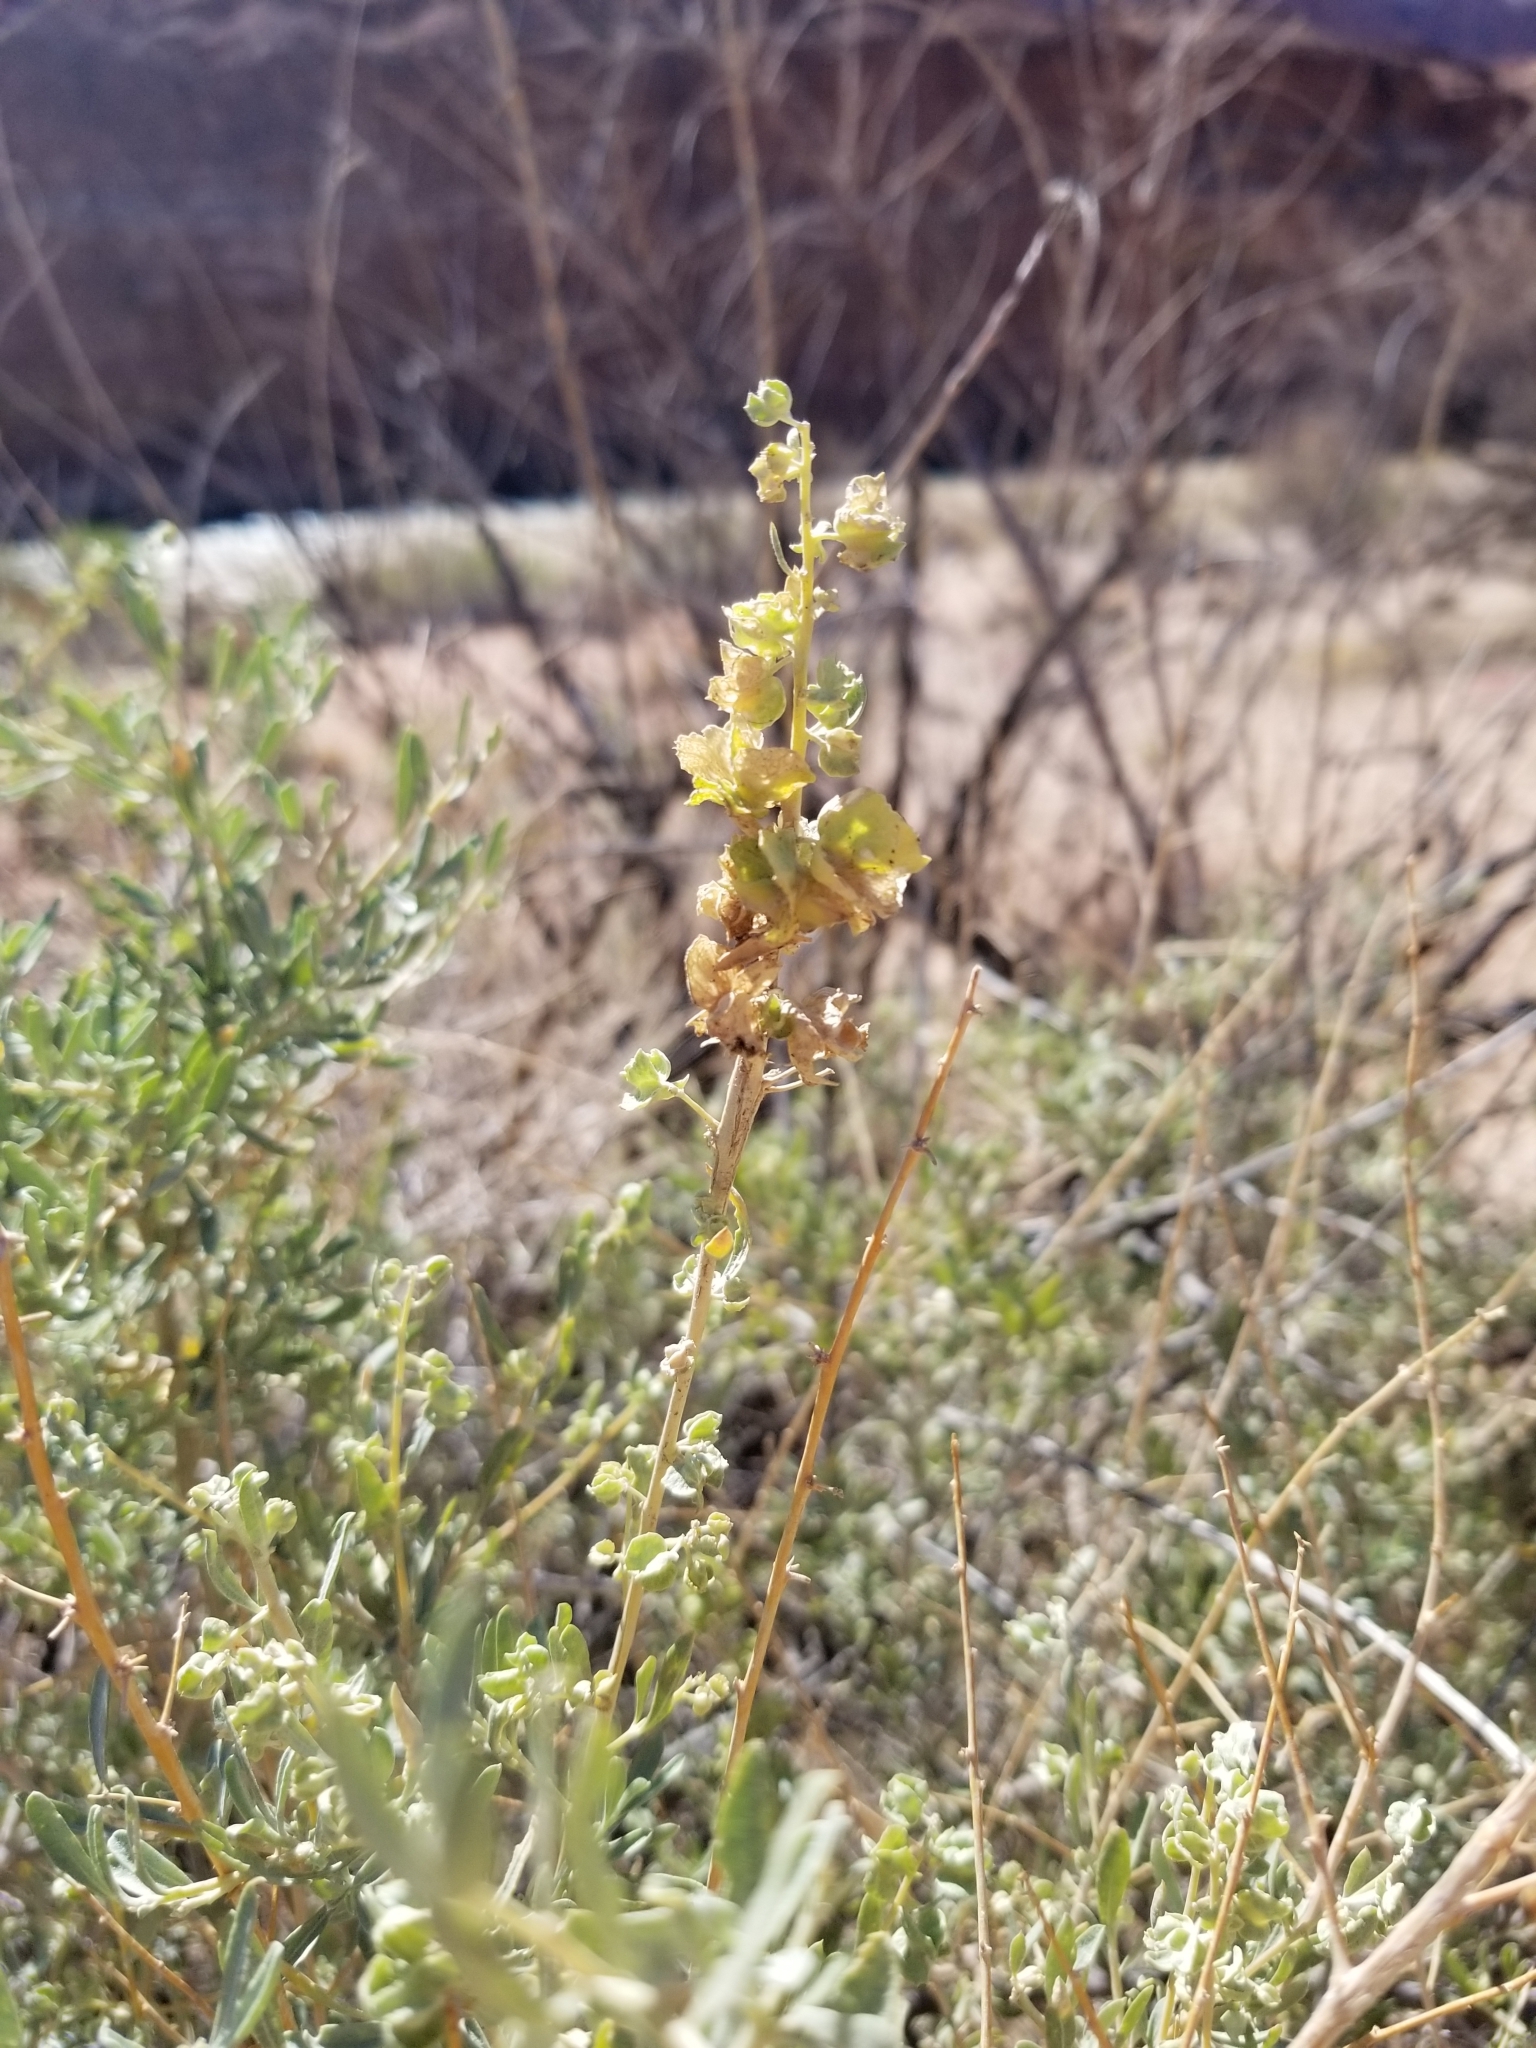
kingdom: Plantae
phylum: Tracheophyta
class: Magnoliopsida
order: Caryophyllales
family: Amaranthaceae
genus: Atriplex
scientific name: Atriplex canescens
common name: Four-wing saltbush
